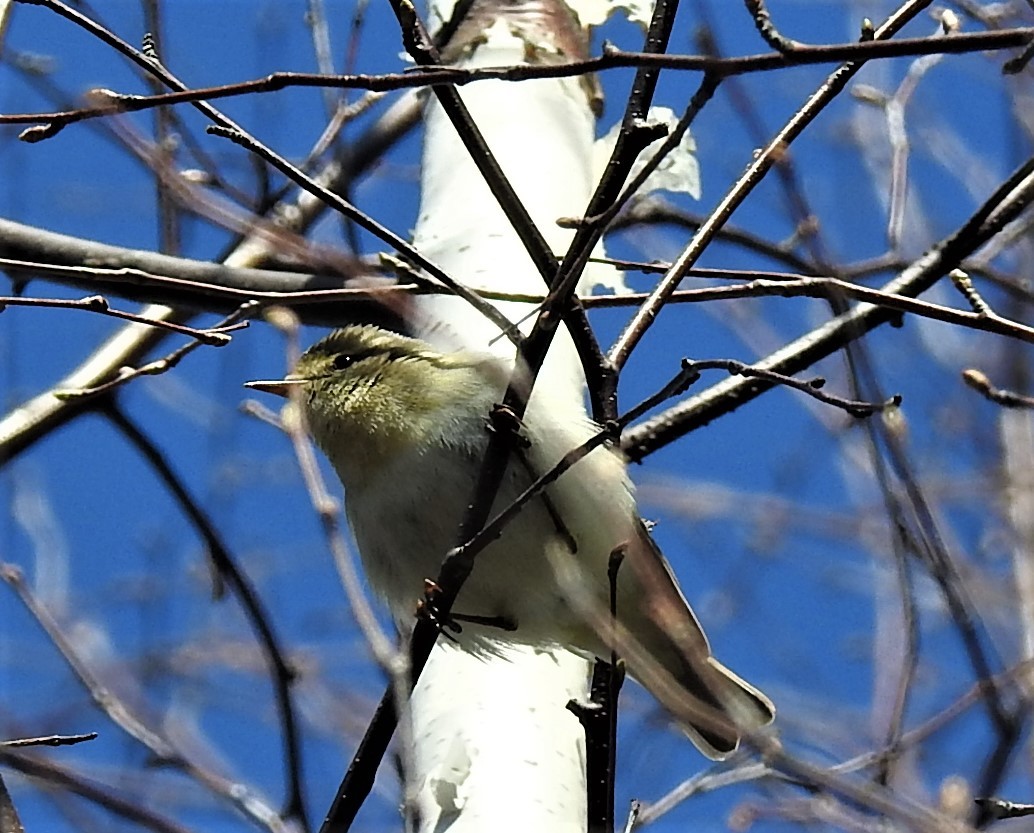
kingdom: Animalia
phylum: Chordata
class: Aves
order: Passeriformes
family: Phylloscopidae
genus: Phylloscopus
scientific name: Phylloscopus sibillatrix
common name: Wood warbler
